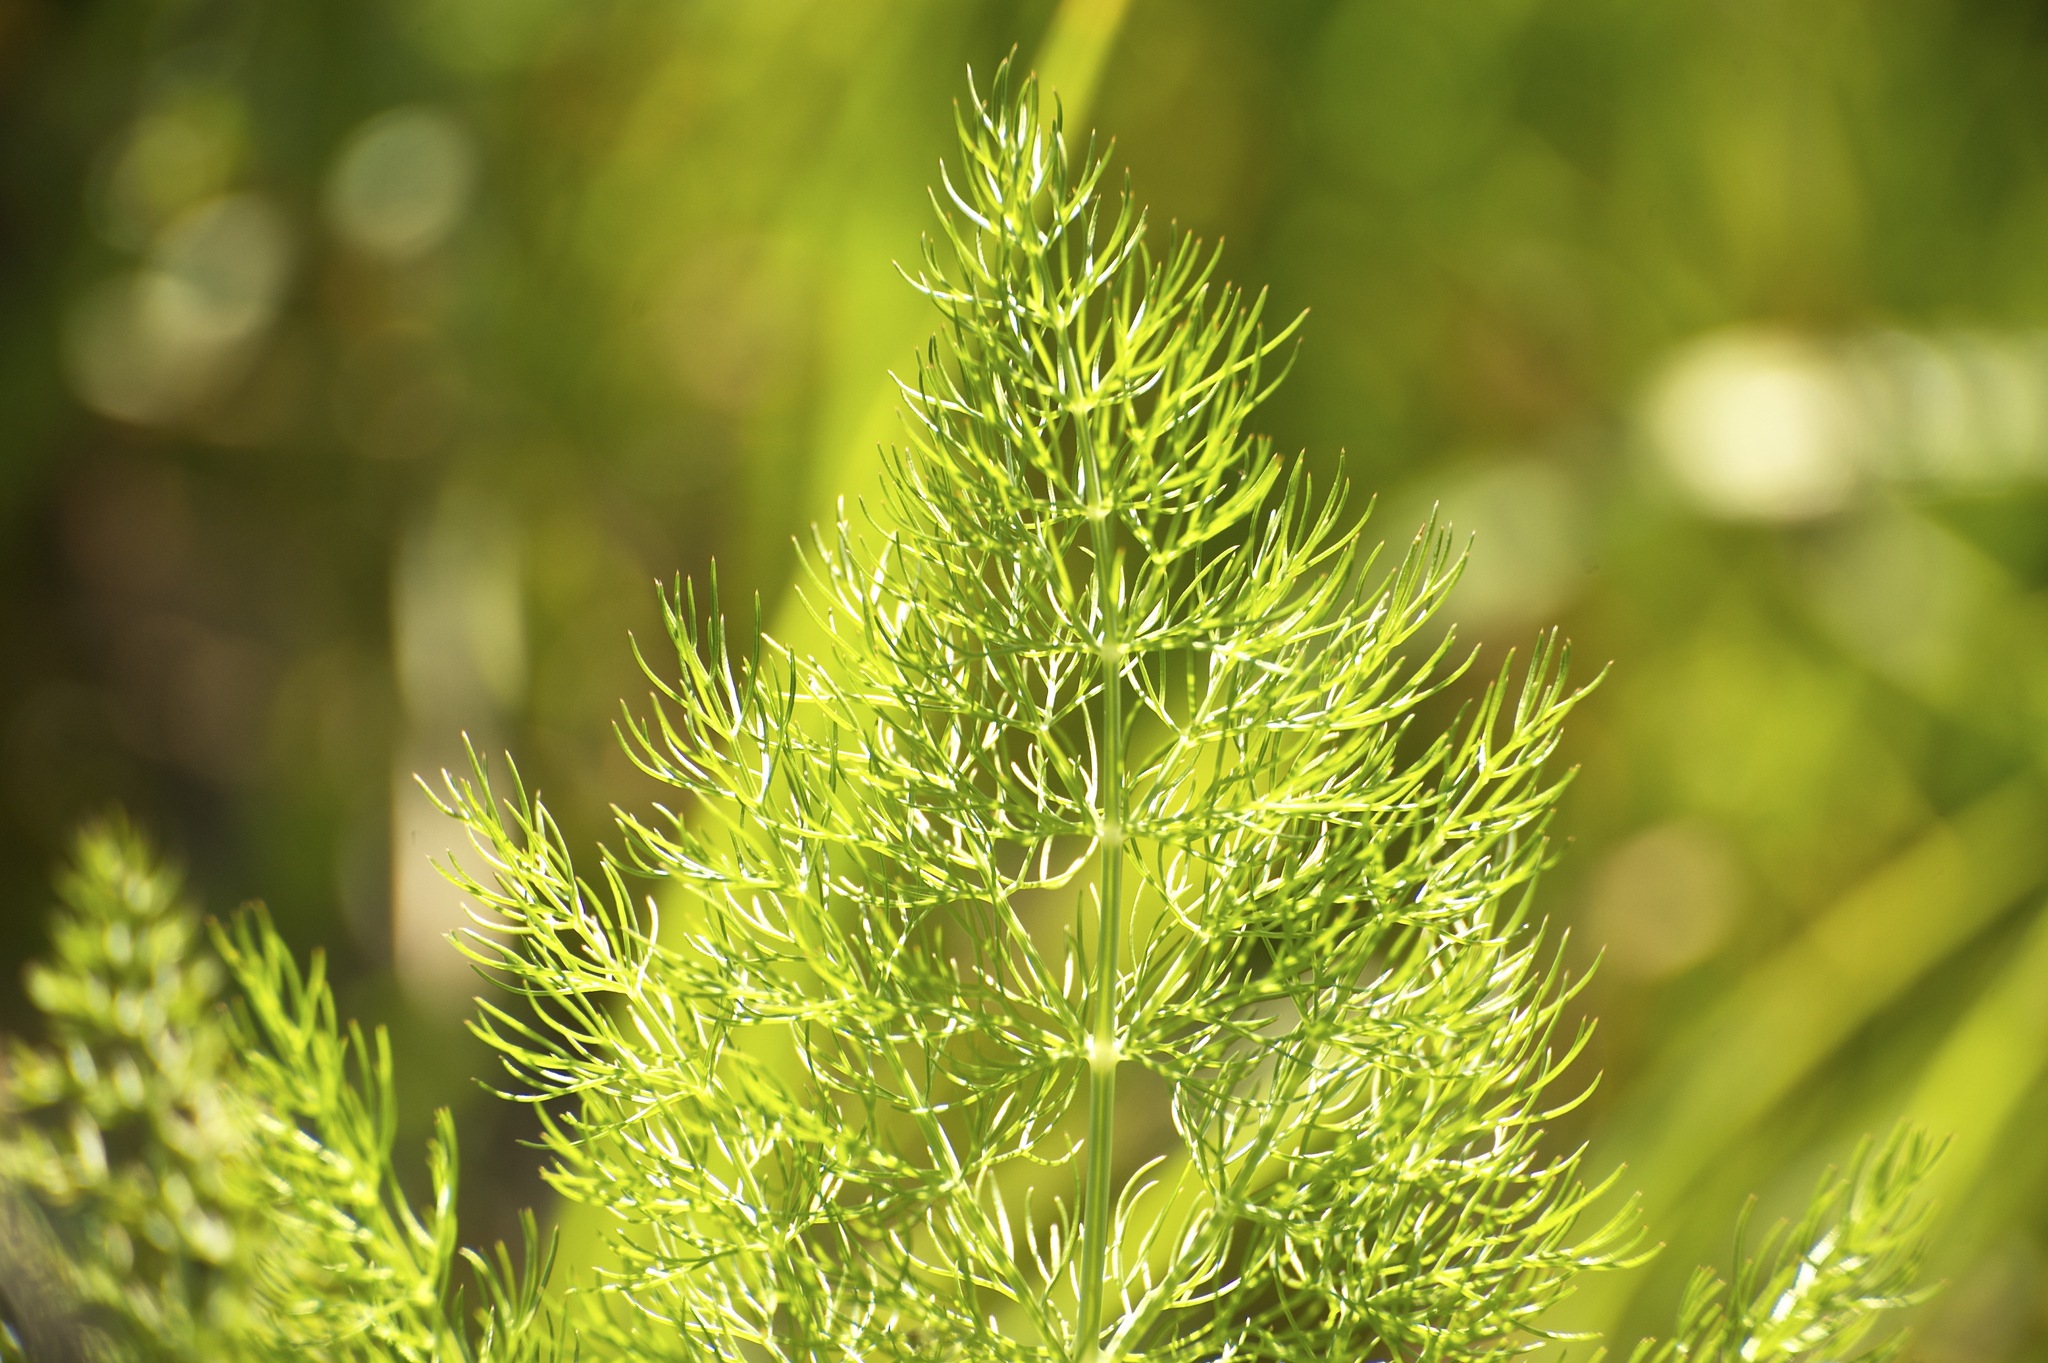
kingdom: Plantae
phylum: Tracheophyta
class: Magnoliopsida
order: Apiales
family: Apiaceae
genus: Foeniculum
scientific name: Foeniculum vulgare
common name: Fennel
